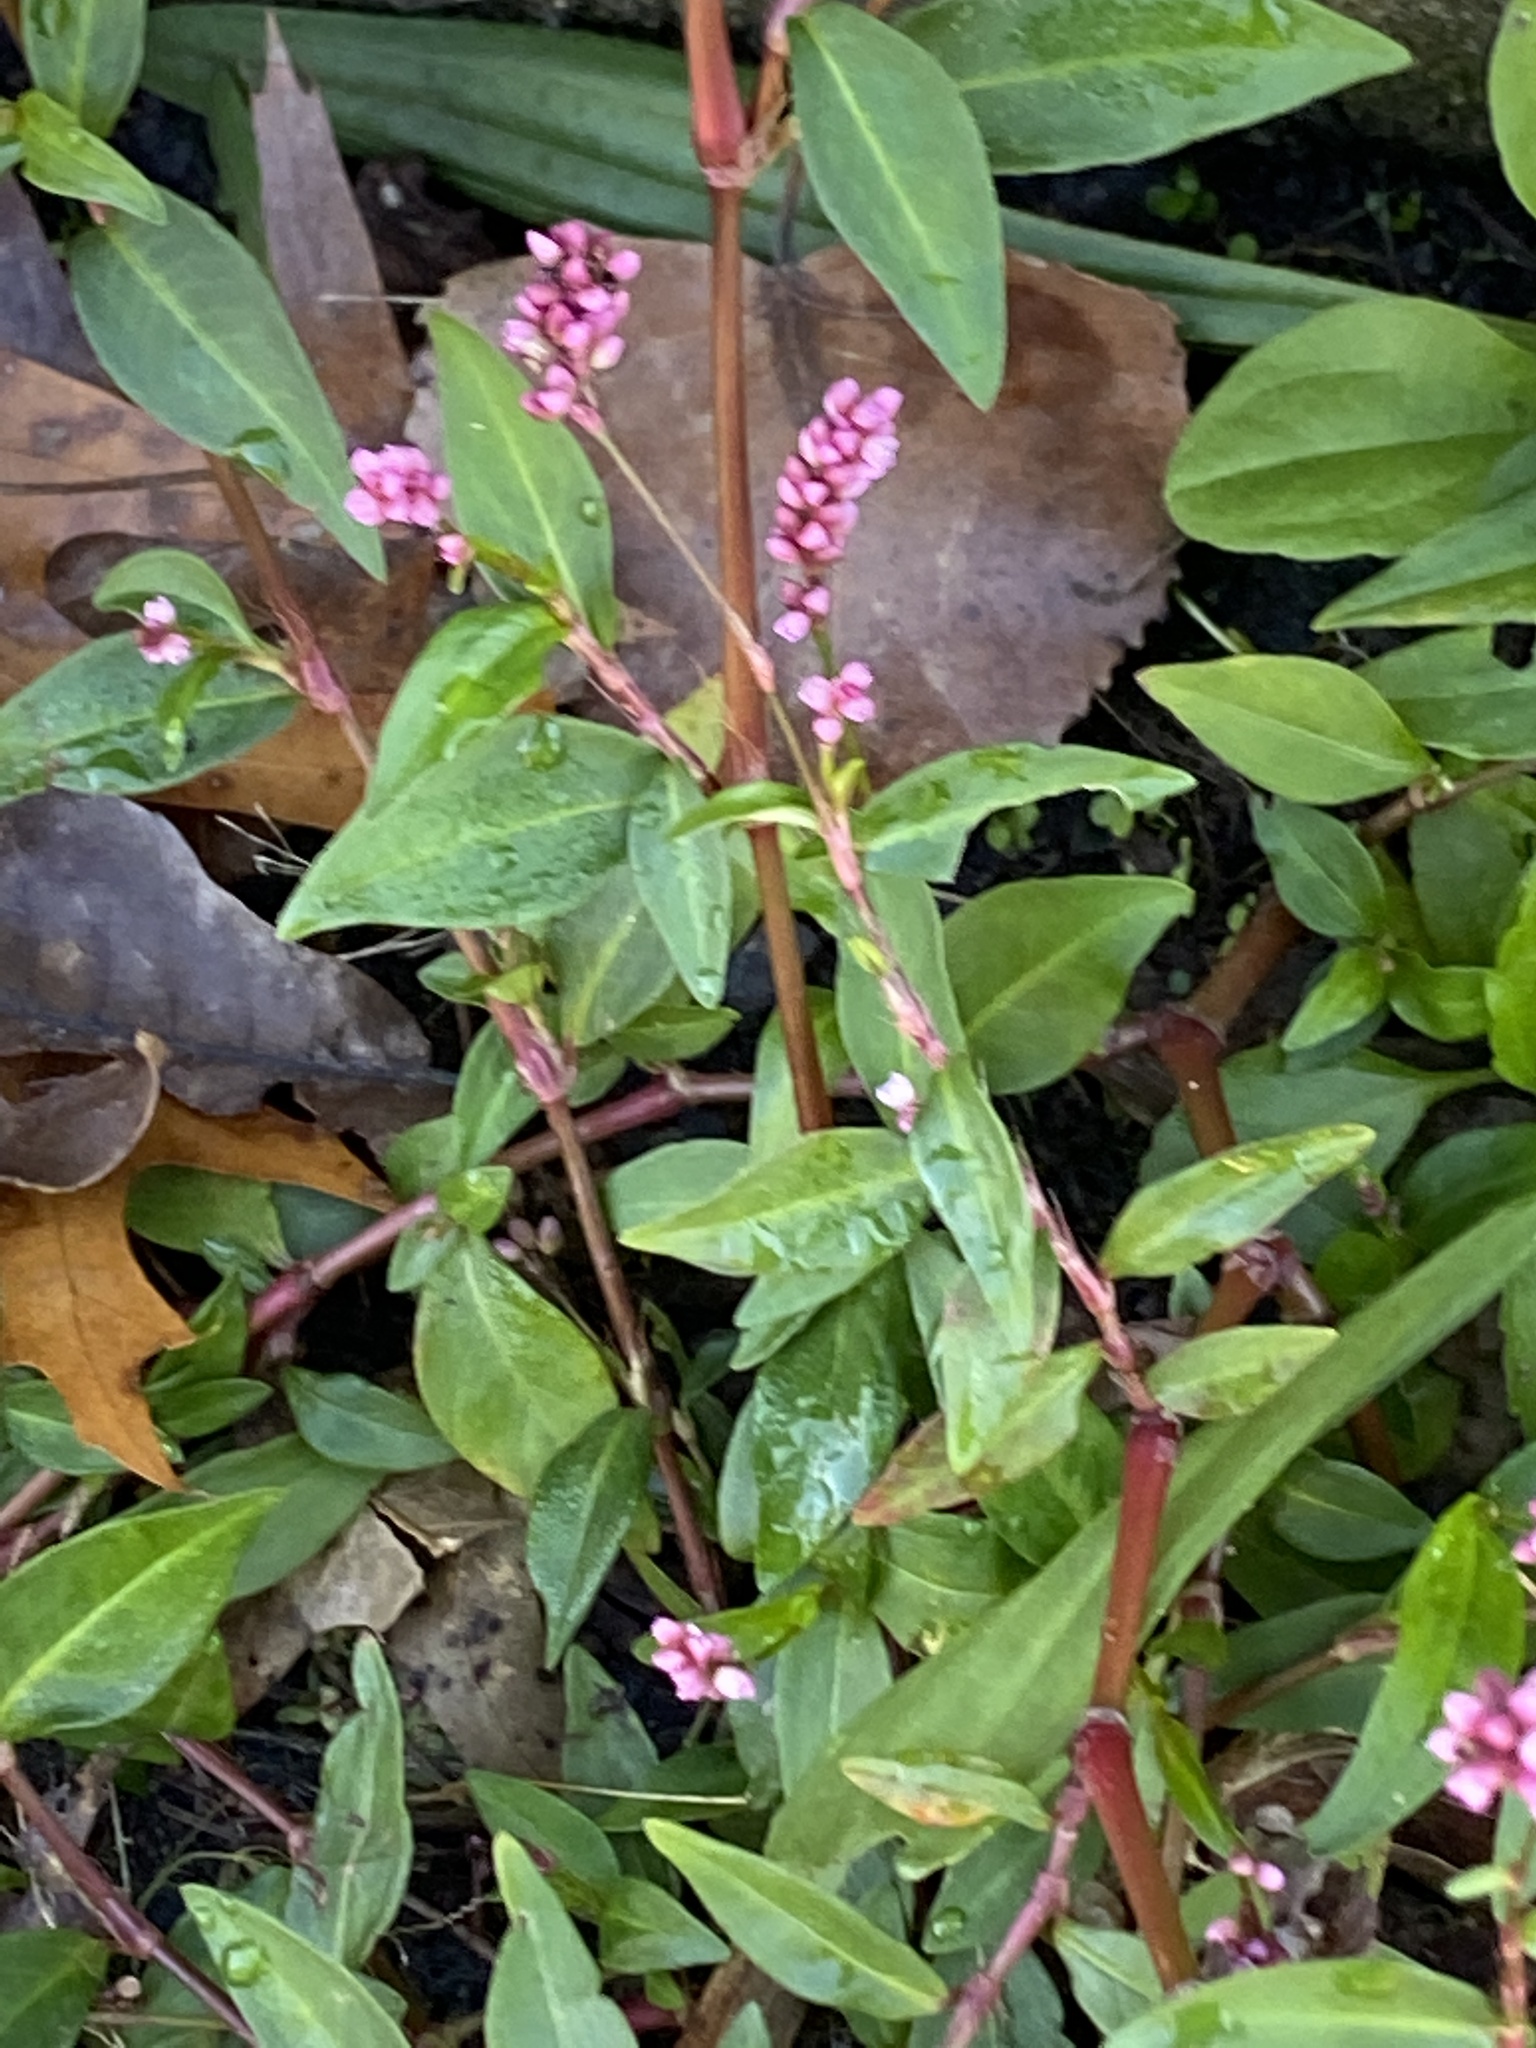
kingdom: Plantae
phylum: Tracheophyta
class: Magnoliopsida
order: Caryophyllales
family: Polygonaceae
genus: Persicaria
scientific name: Persicaria longiseta
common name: Bristly lady's-thumb
